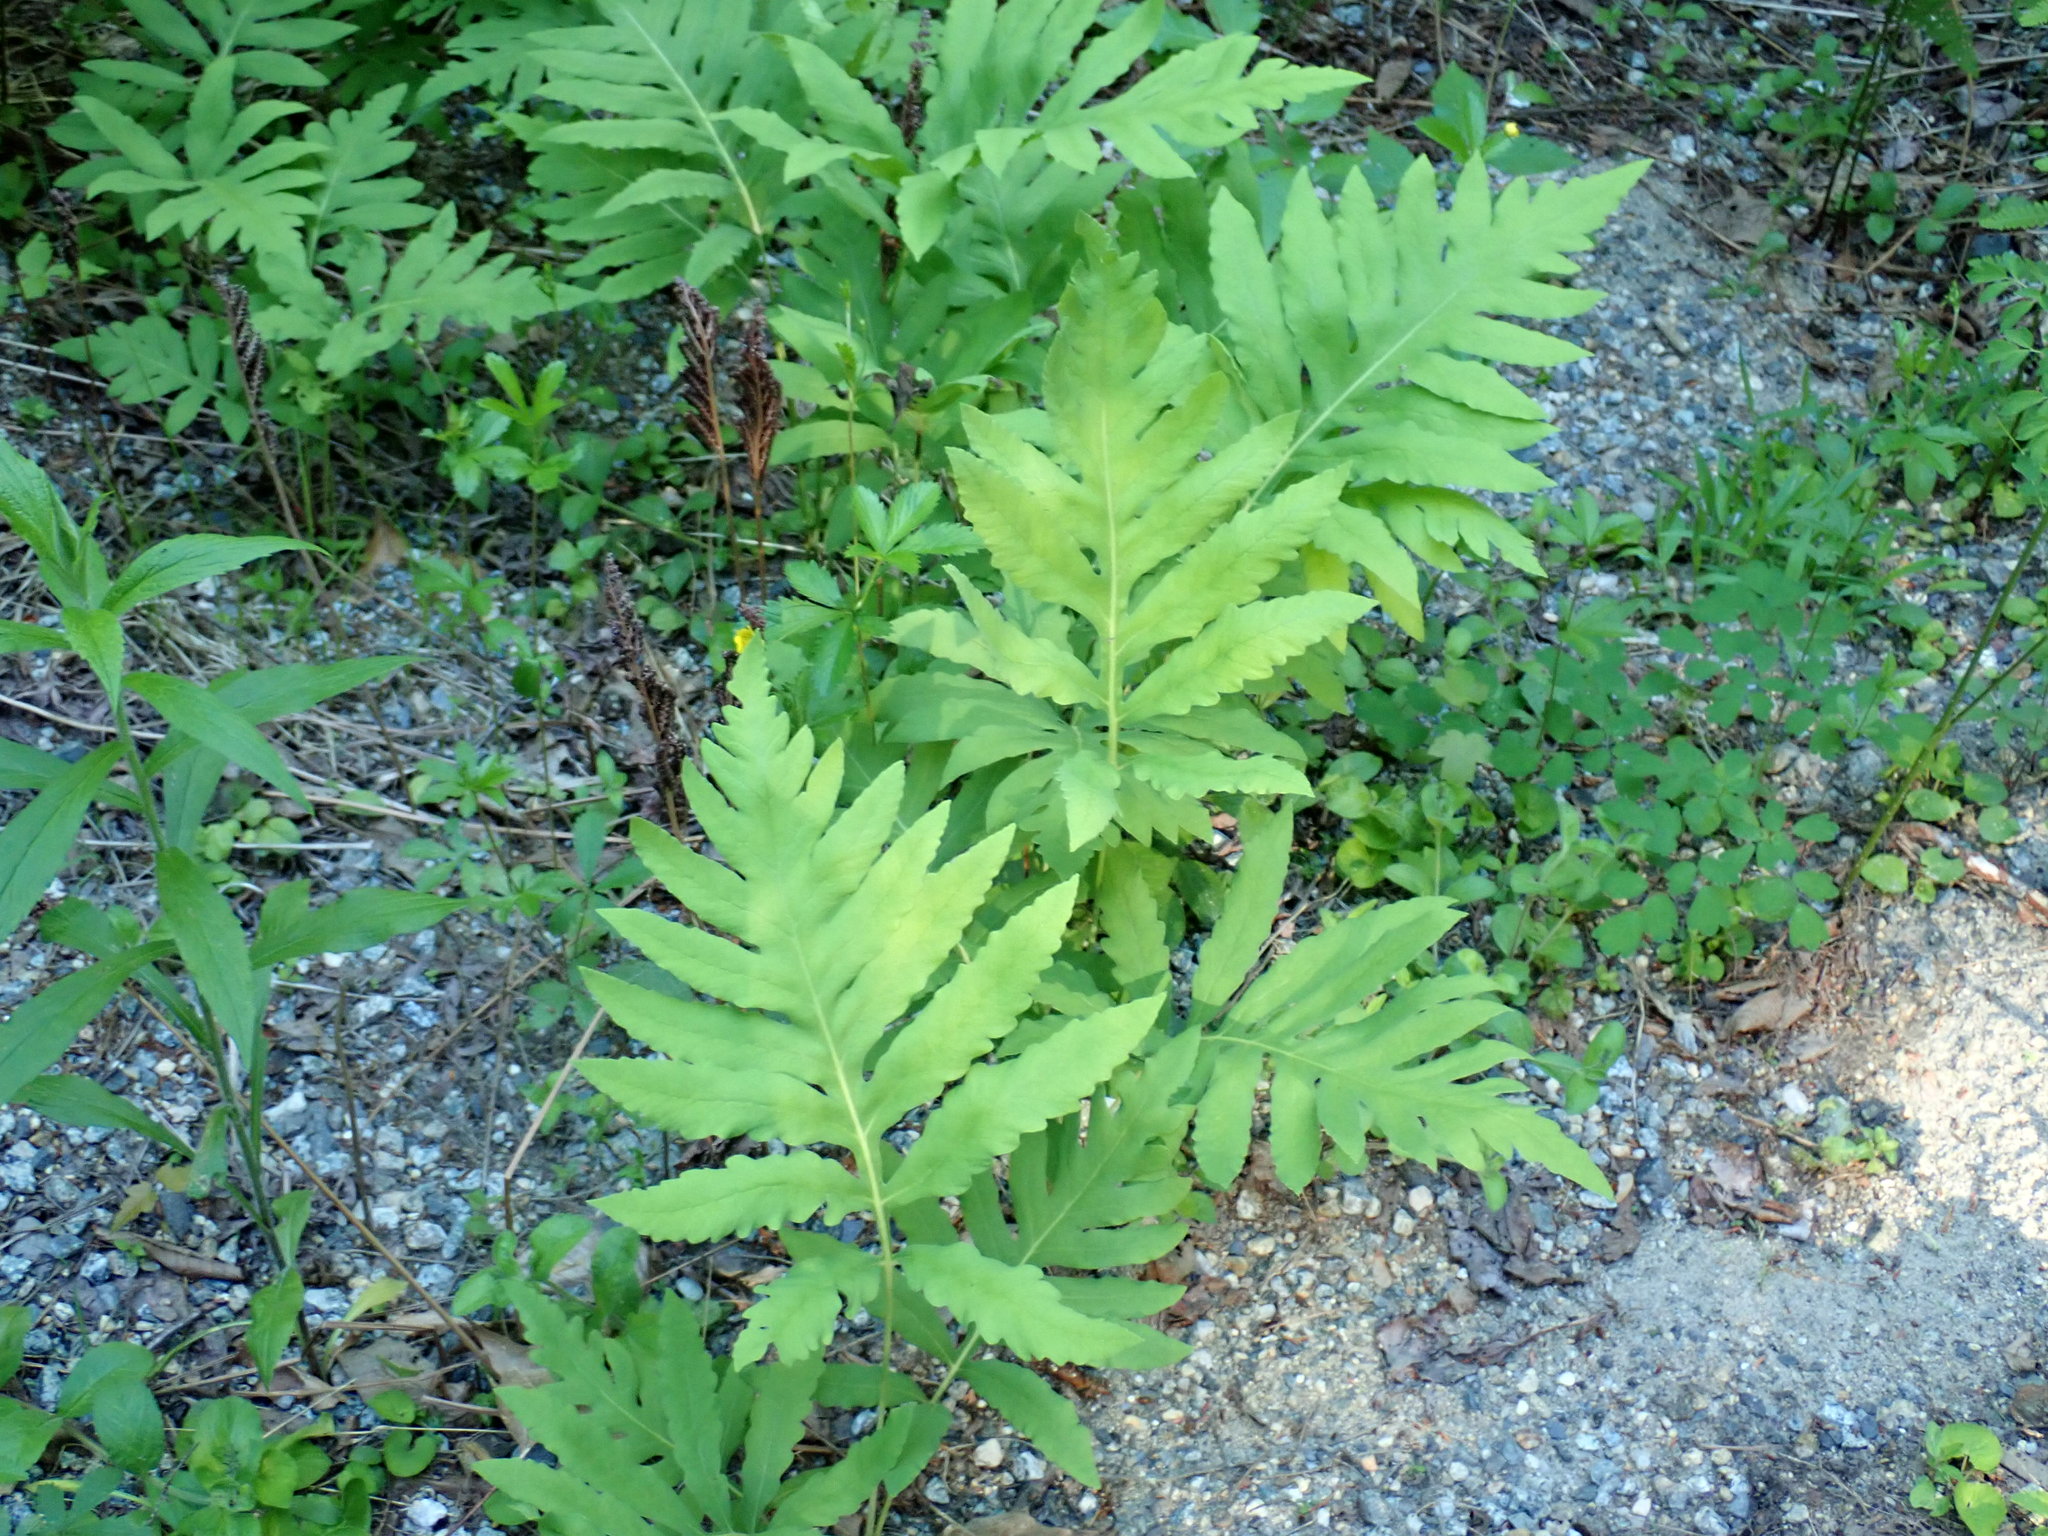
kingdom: Plantae
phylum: Tracheophyta
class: Polypodiopsida
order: Polypodiales
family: Onocleaceae
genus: Onoclea
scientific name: Onoclea sensibilis
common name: Sensitive fern
